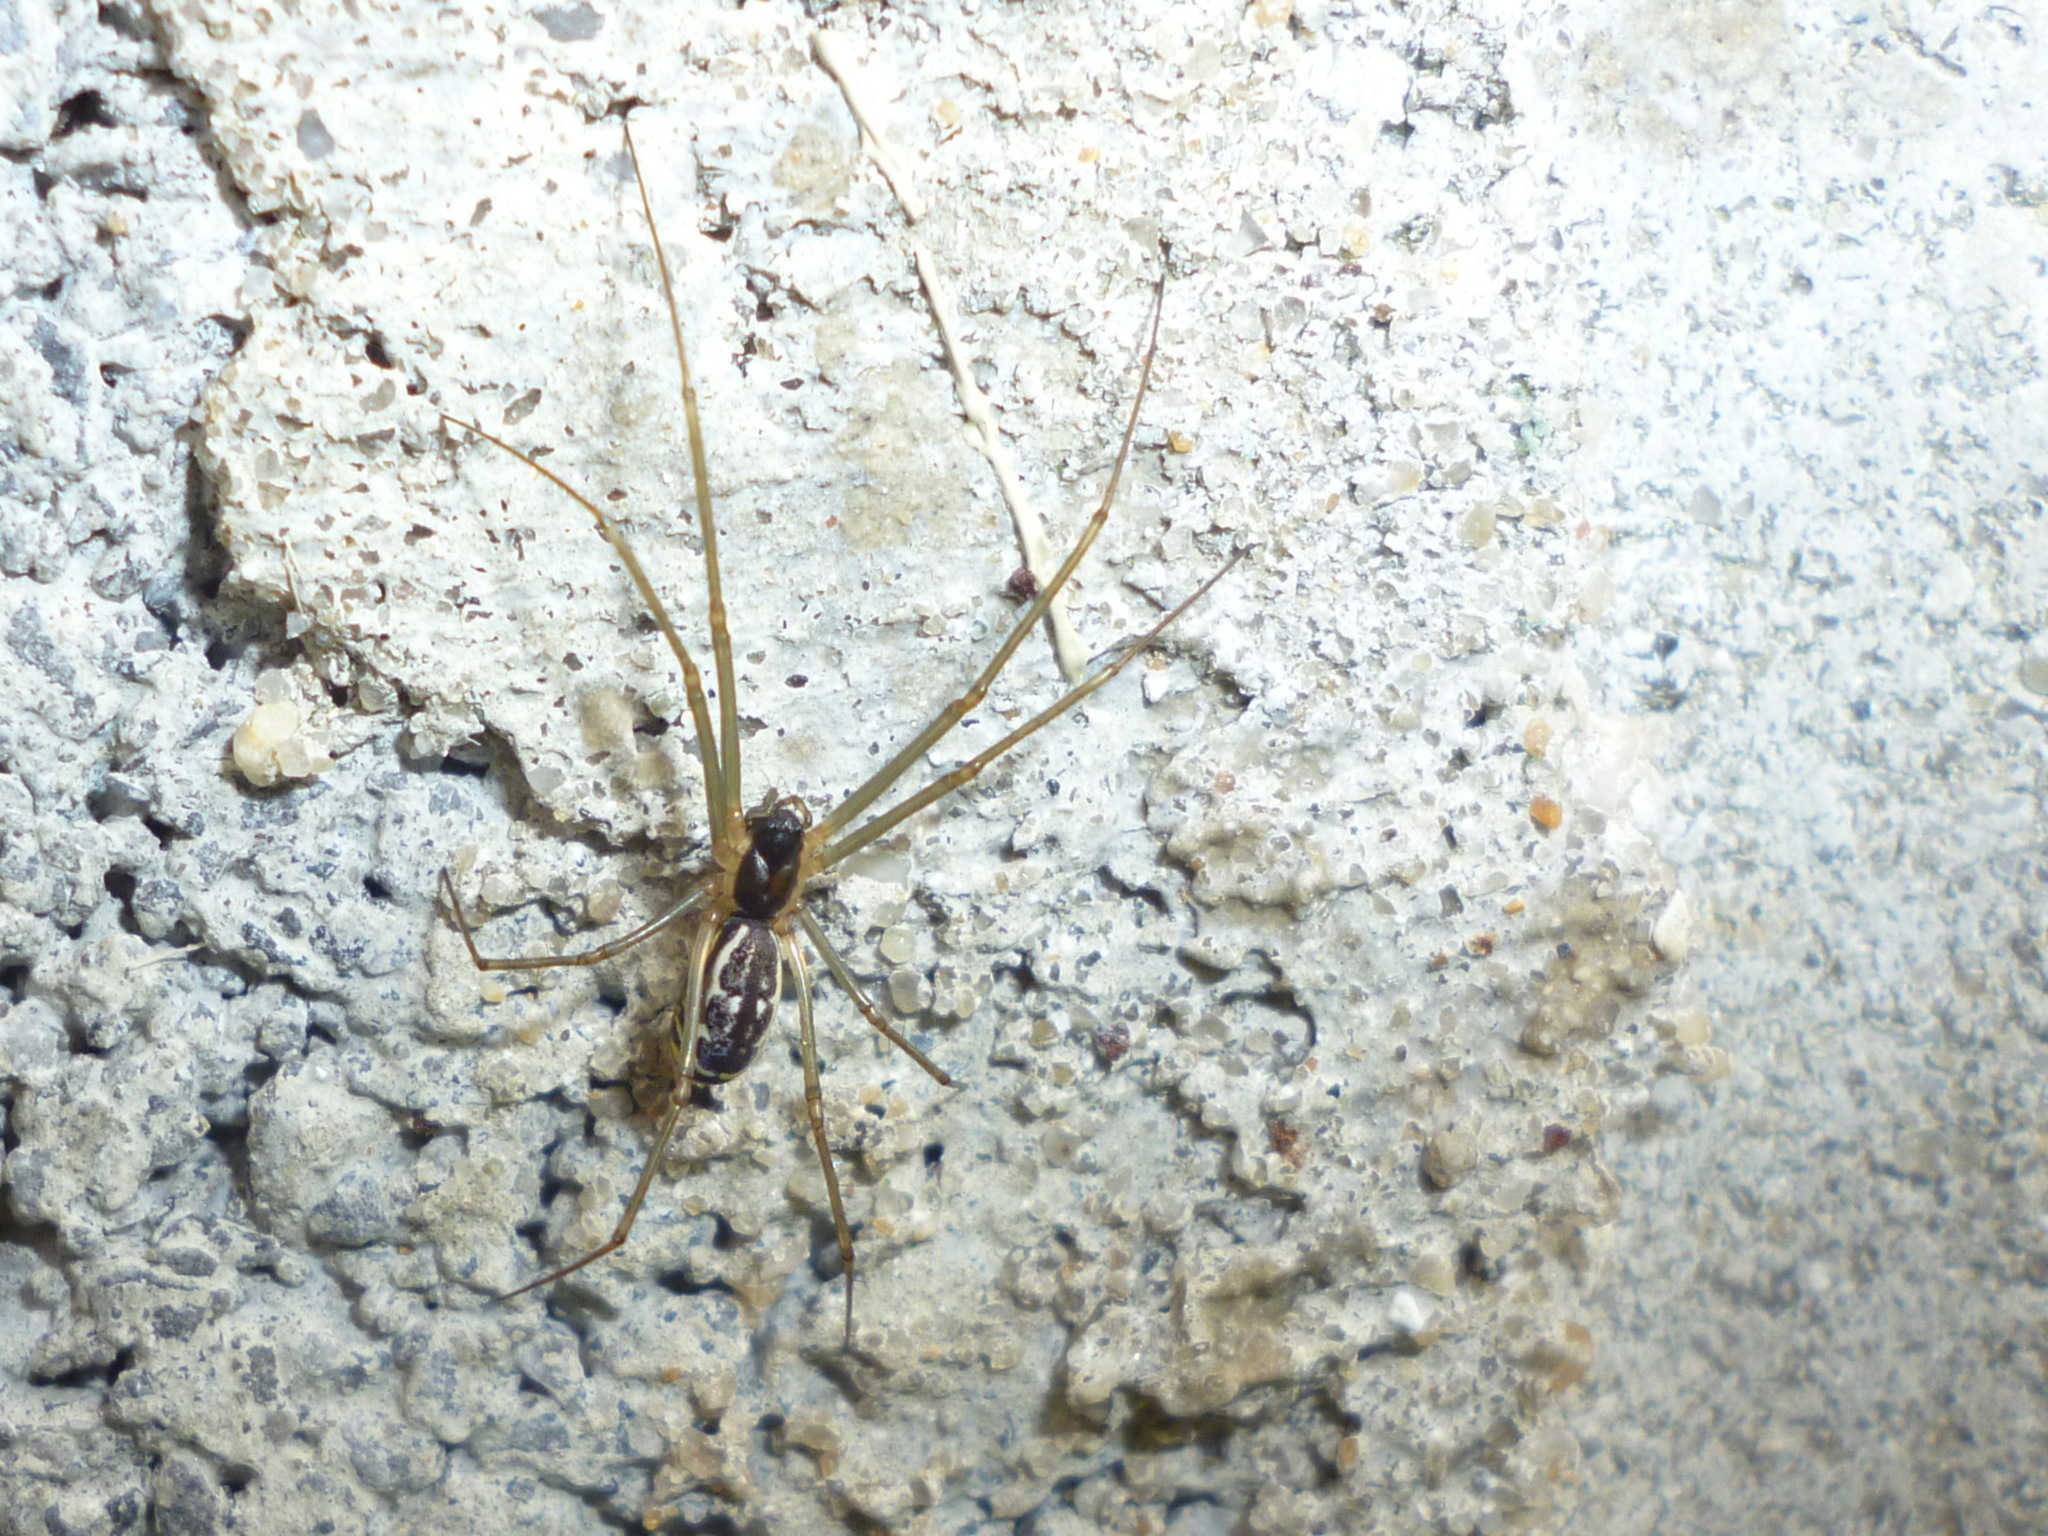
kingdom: Animalia
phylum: Arthropoda
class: Arachnida
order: Araneae
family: Linyphiidae
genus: Neriene
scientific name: Neriene radiata
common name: Filmy dome spider
